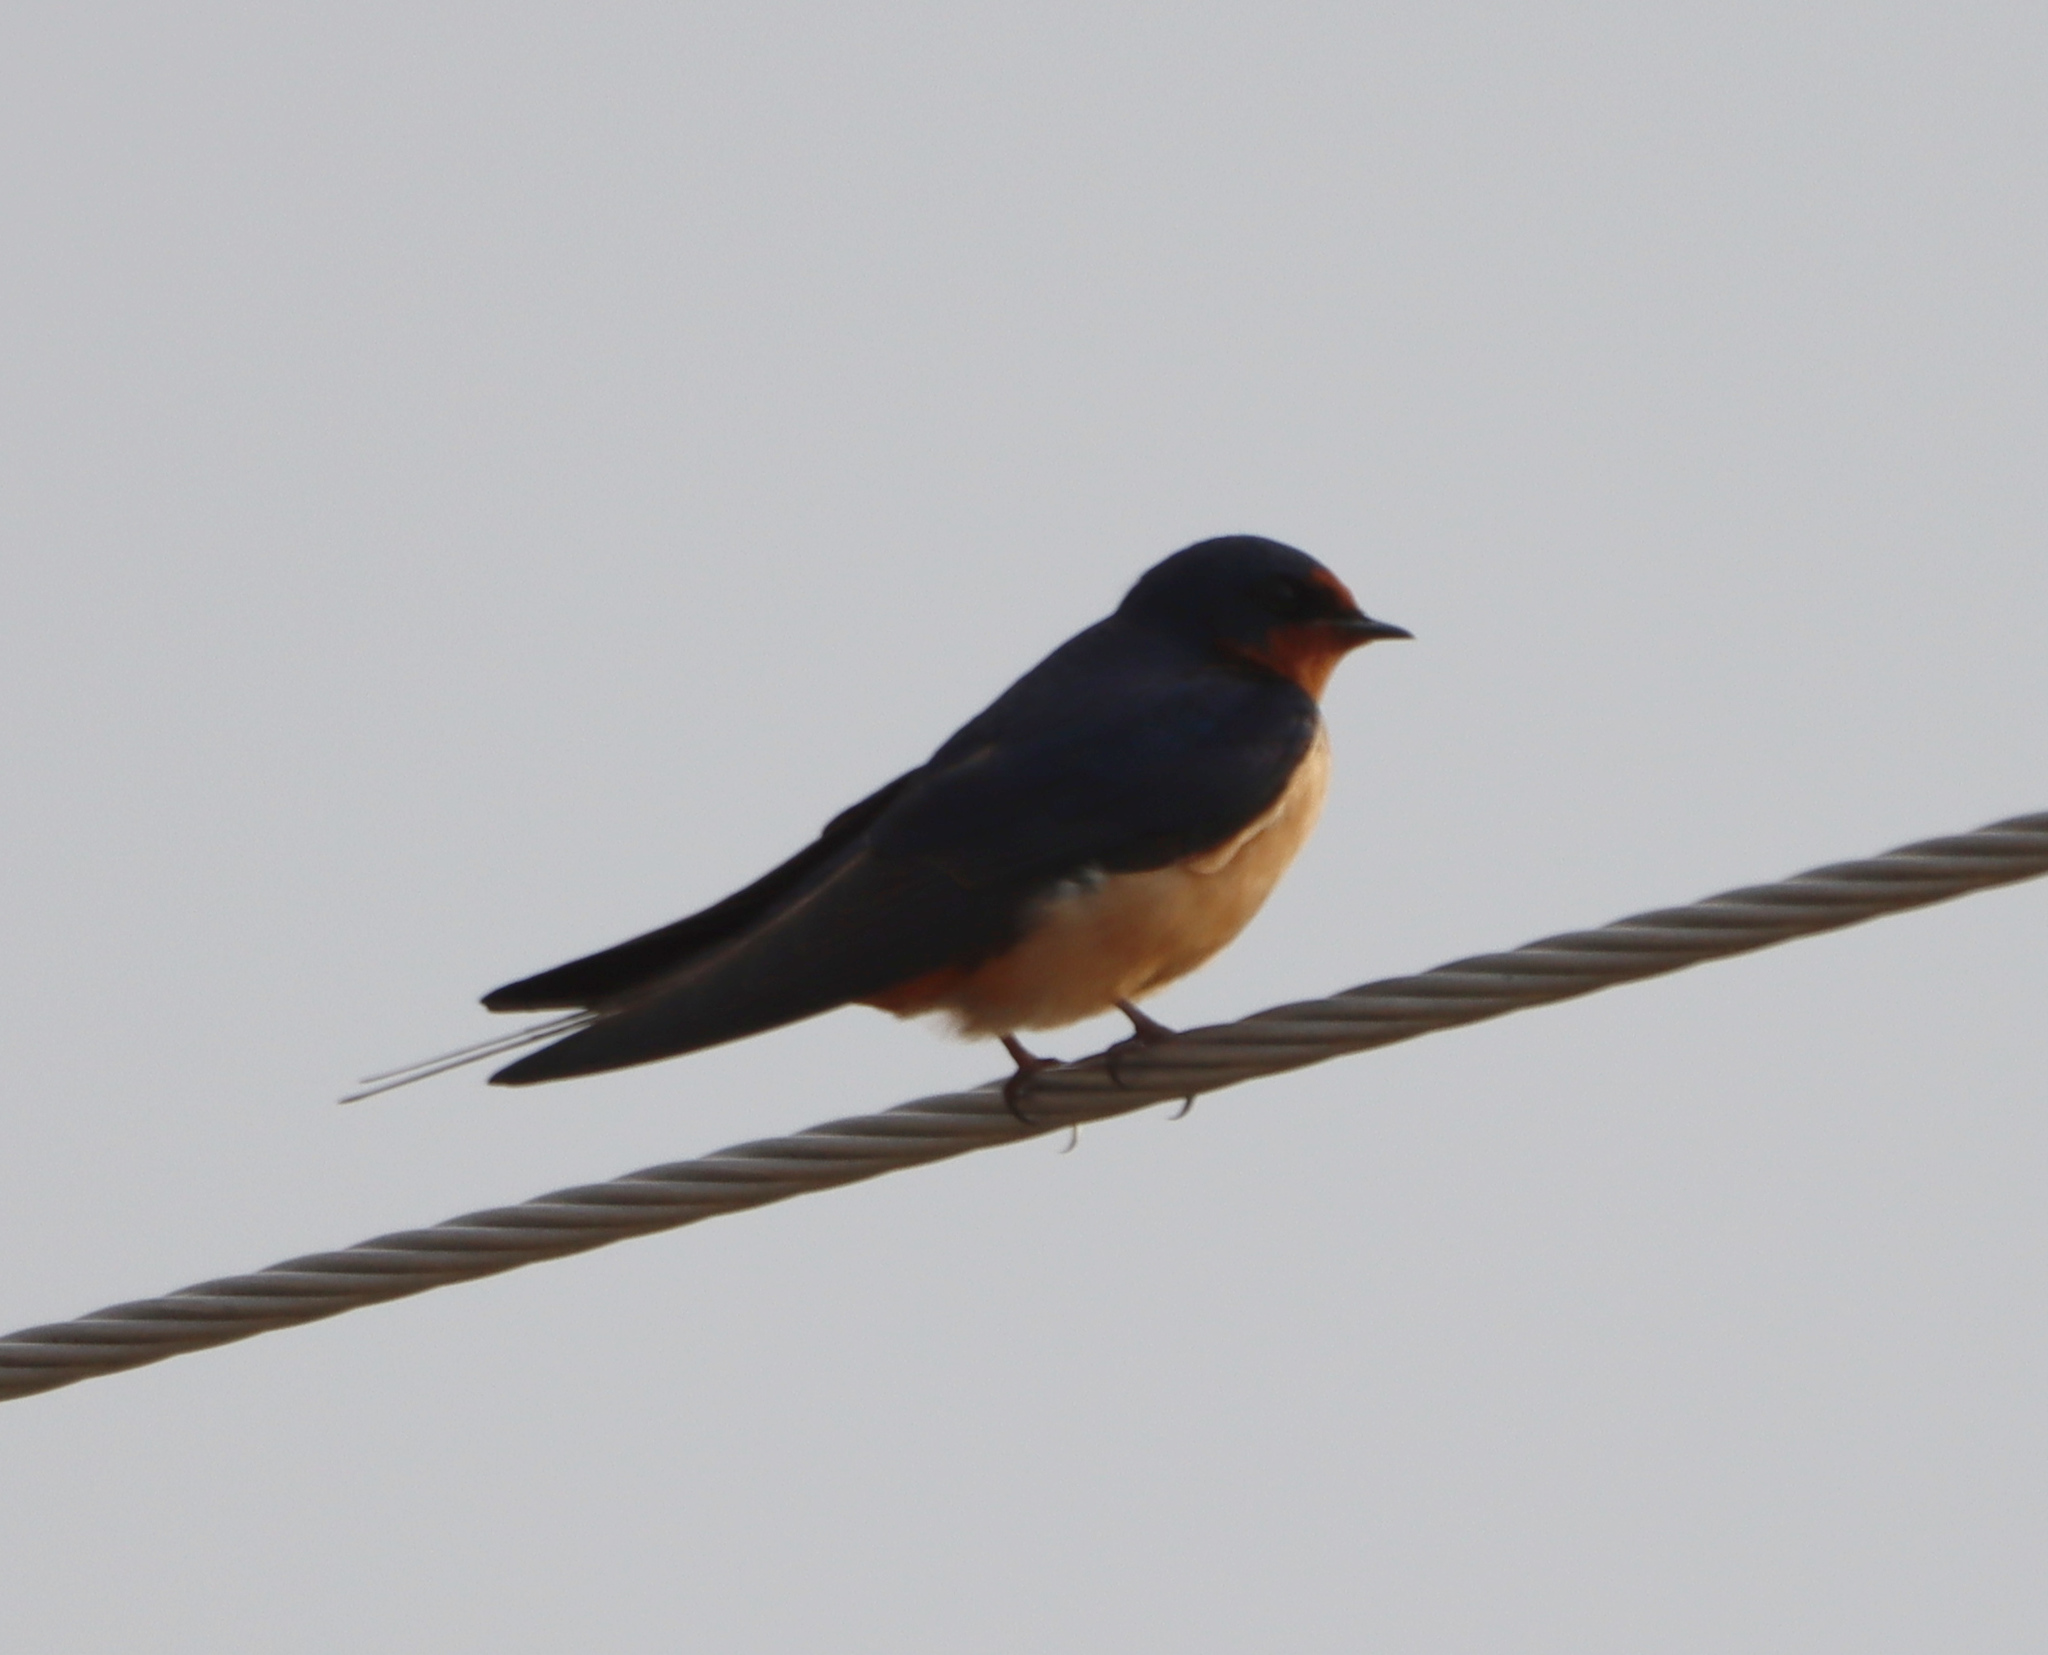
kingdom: Animalia
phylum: Chordata
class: Aves
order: Passeriformes
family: Hirundinidae
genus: Hirundo
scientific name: Hirundo rustica
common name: Barn swallow
